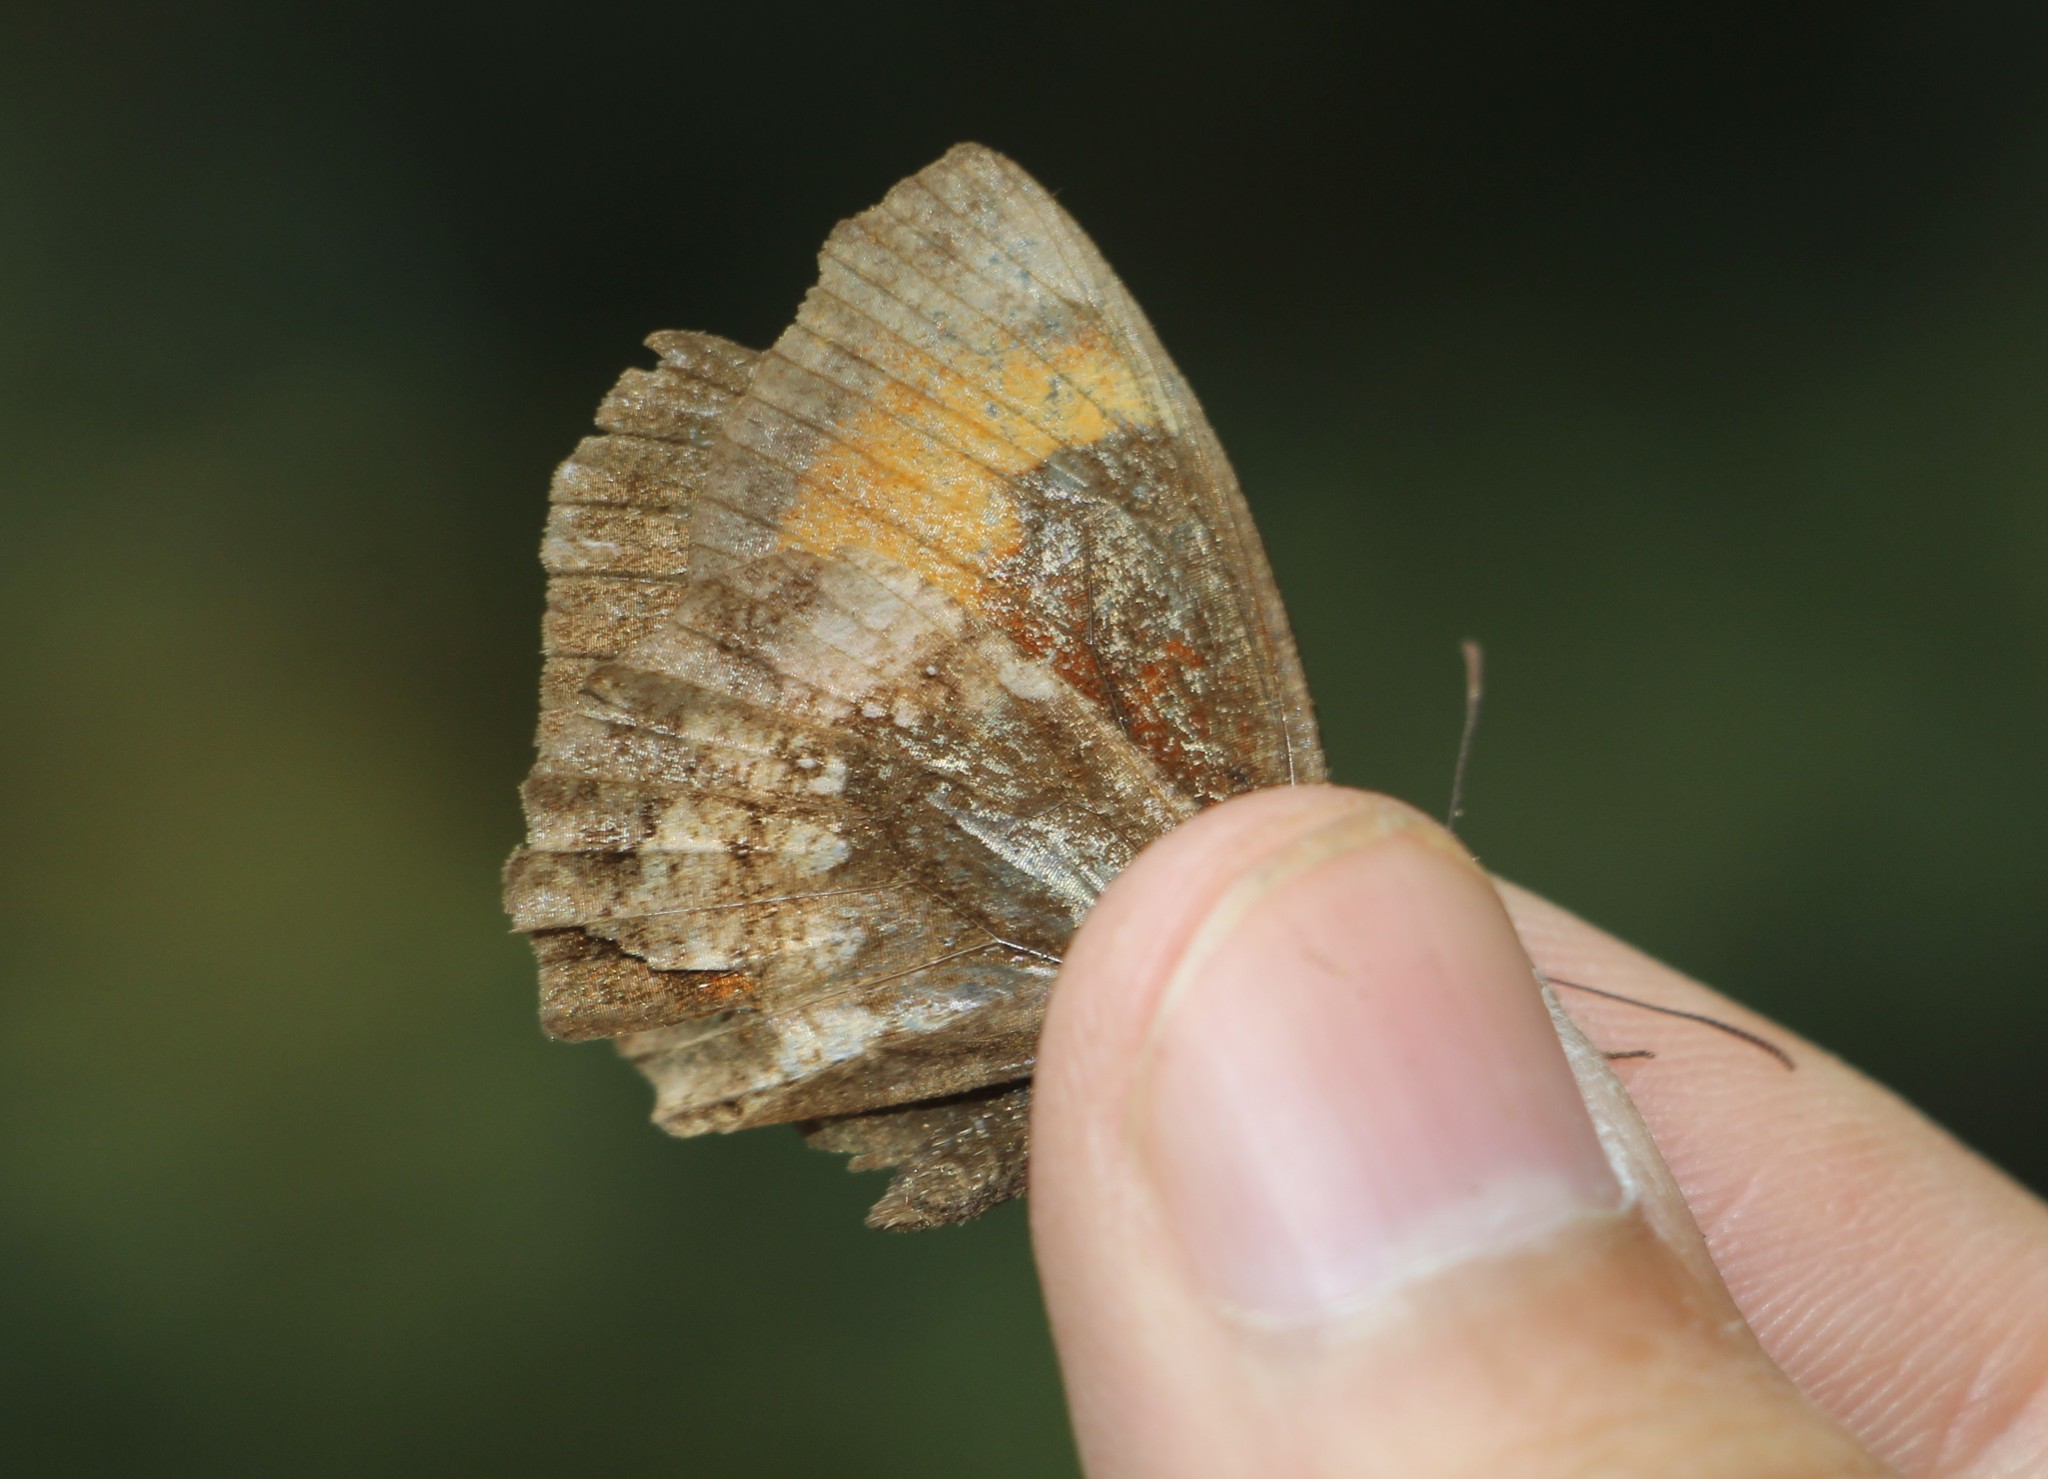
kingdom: Animalia
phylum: Arthropoda
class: Insecta
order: Lepidoptera
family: Nymphalidae
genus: Pedaliodes
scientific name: Pedaliodes
